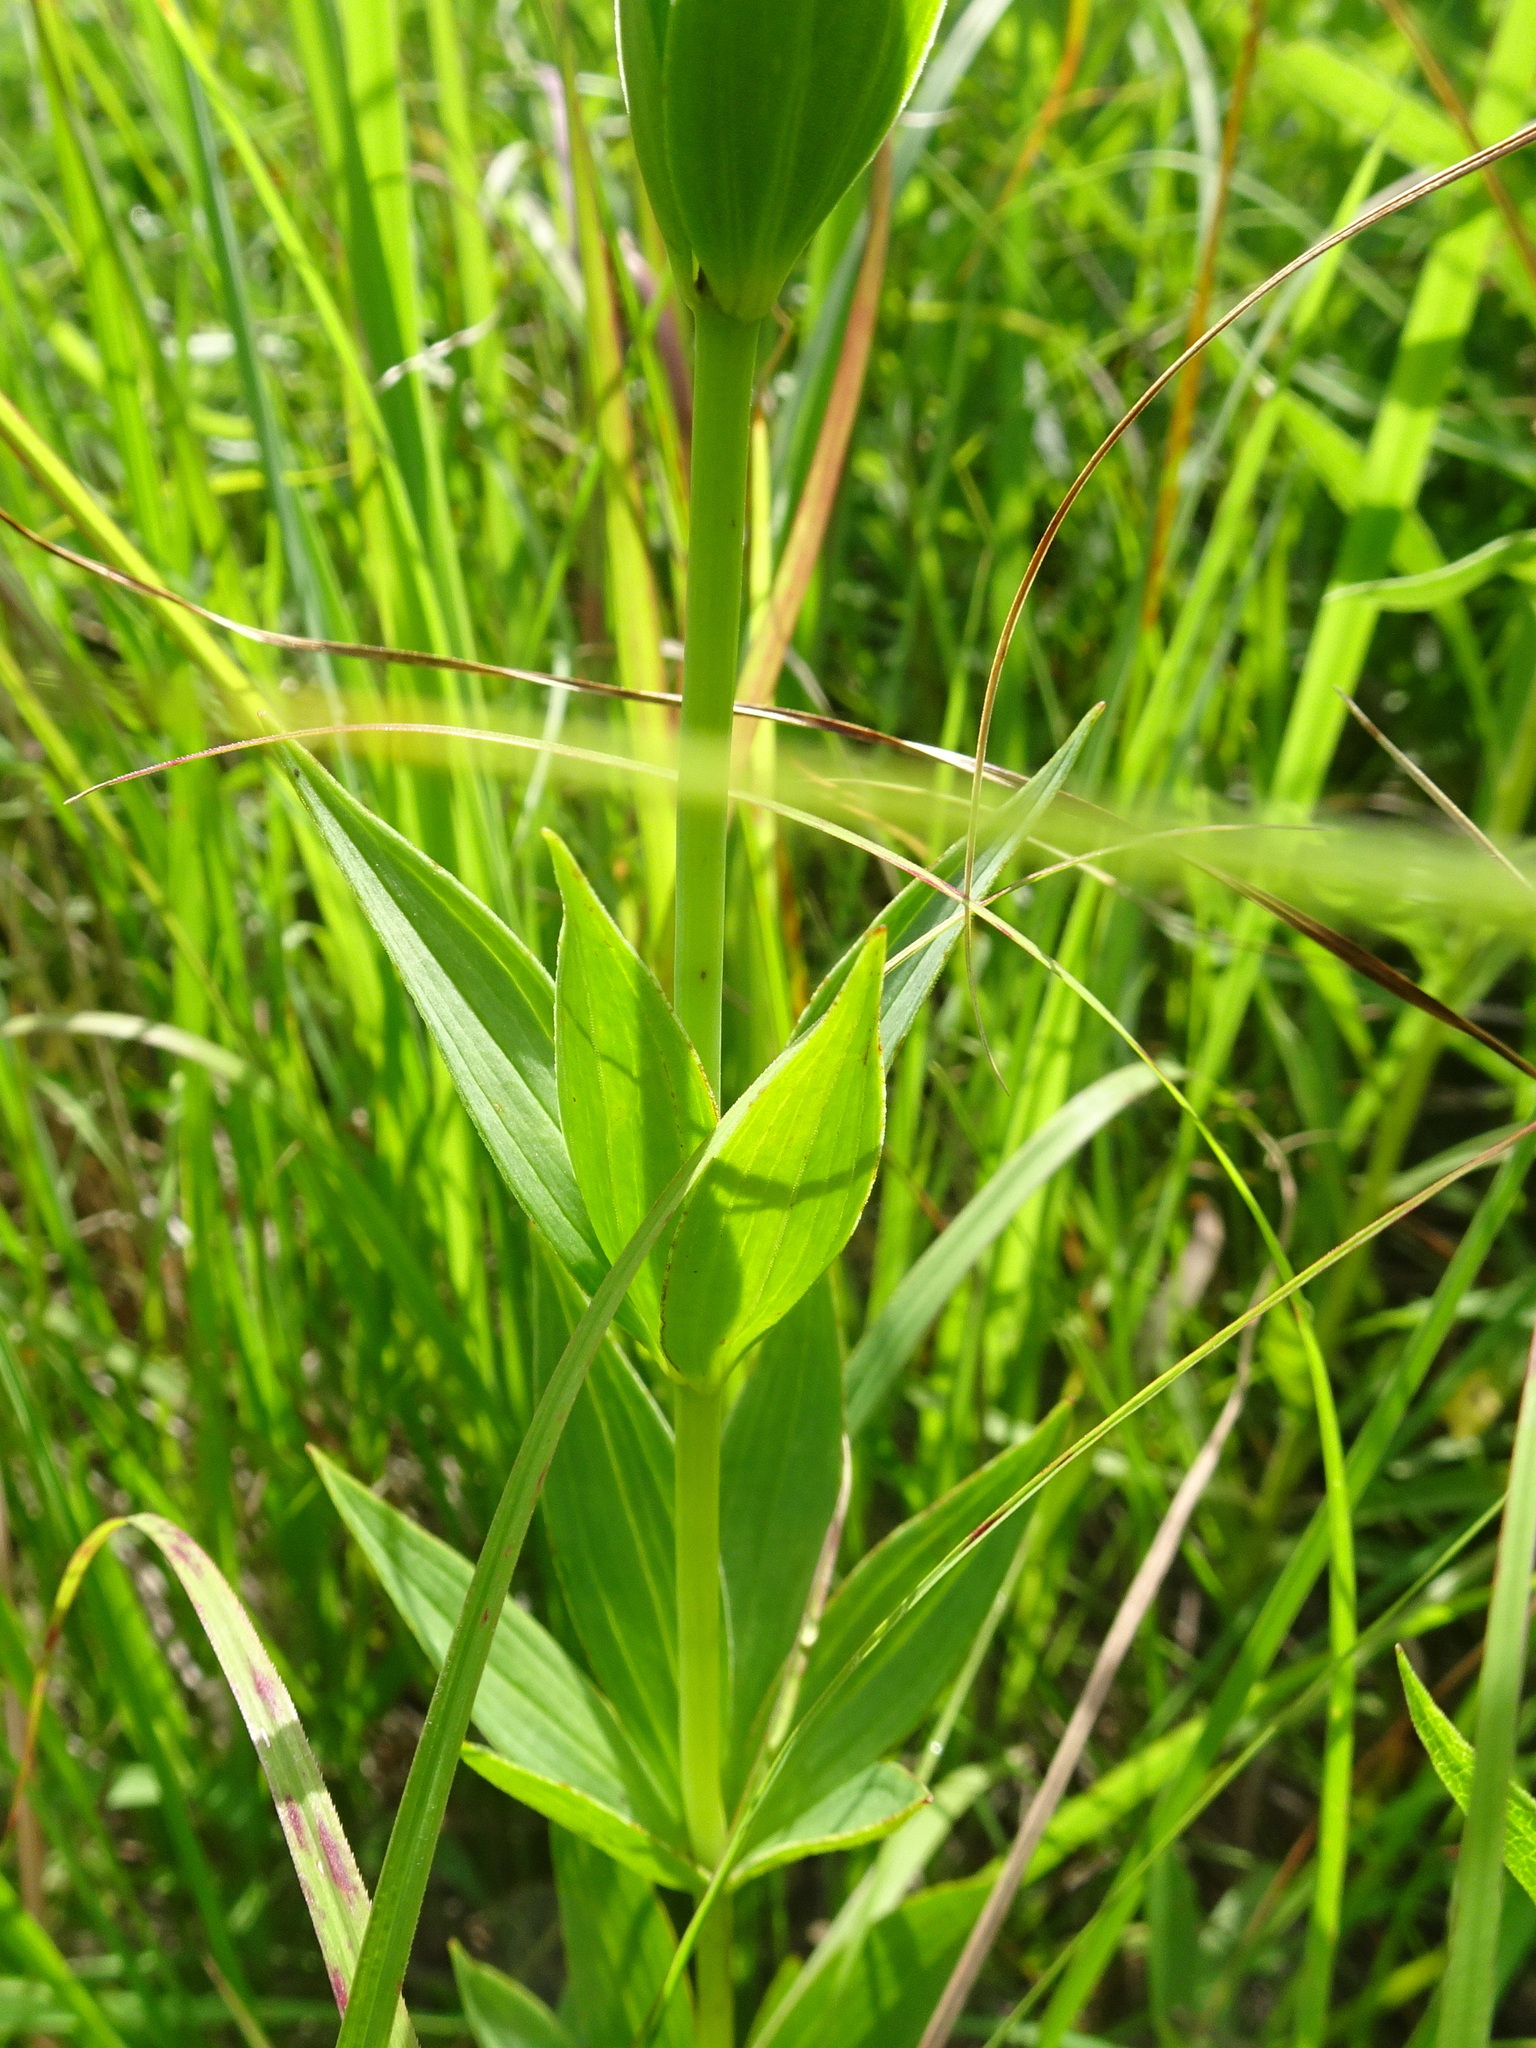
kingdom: Plantae
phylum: Tracheophyta
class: Liliopsida
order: Liliales
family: Liliaceae
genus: Lilium
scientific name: Lilium michiganense
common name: Michigan lily
